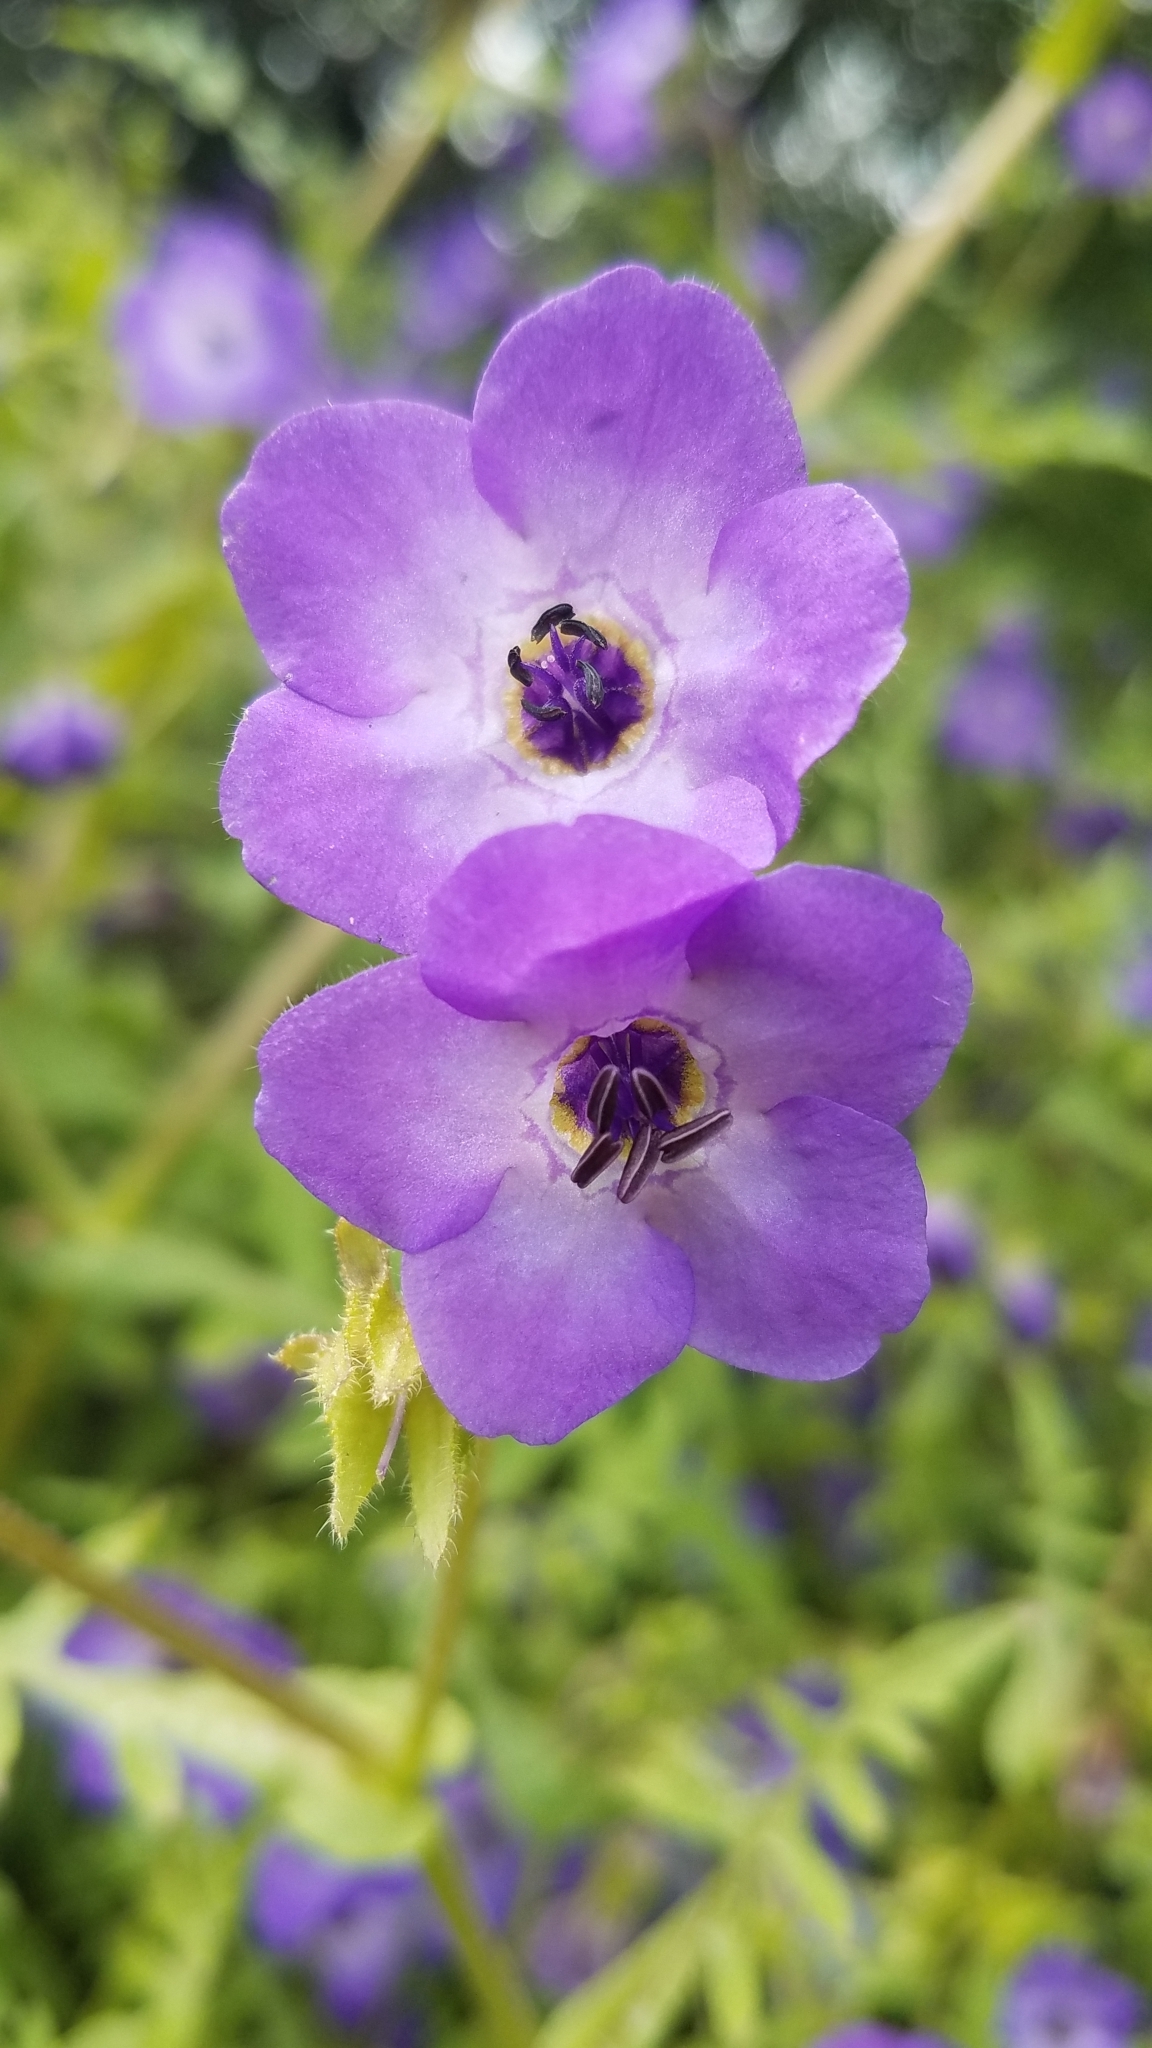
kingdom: Plantae
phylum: Tracheophyta
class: Magnoliopsida
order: Boraginales
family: Hydrophyllaceae
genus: Pholistoma
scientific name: Pholistoma auritum
